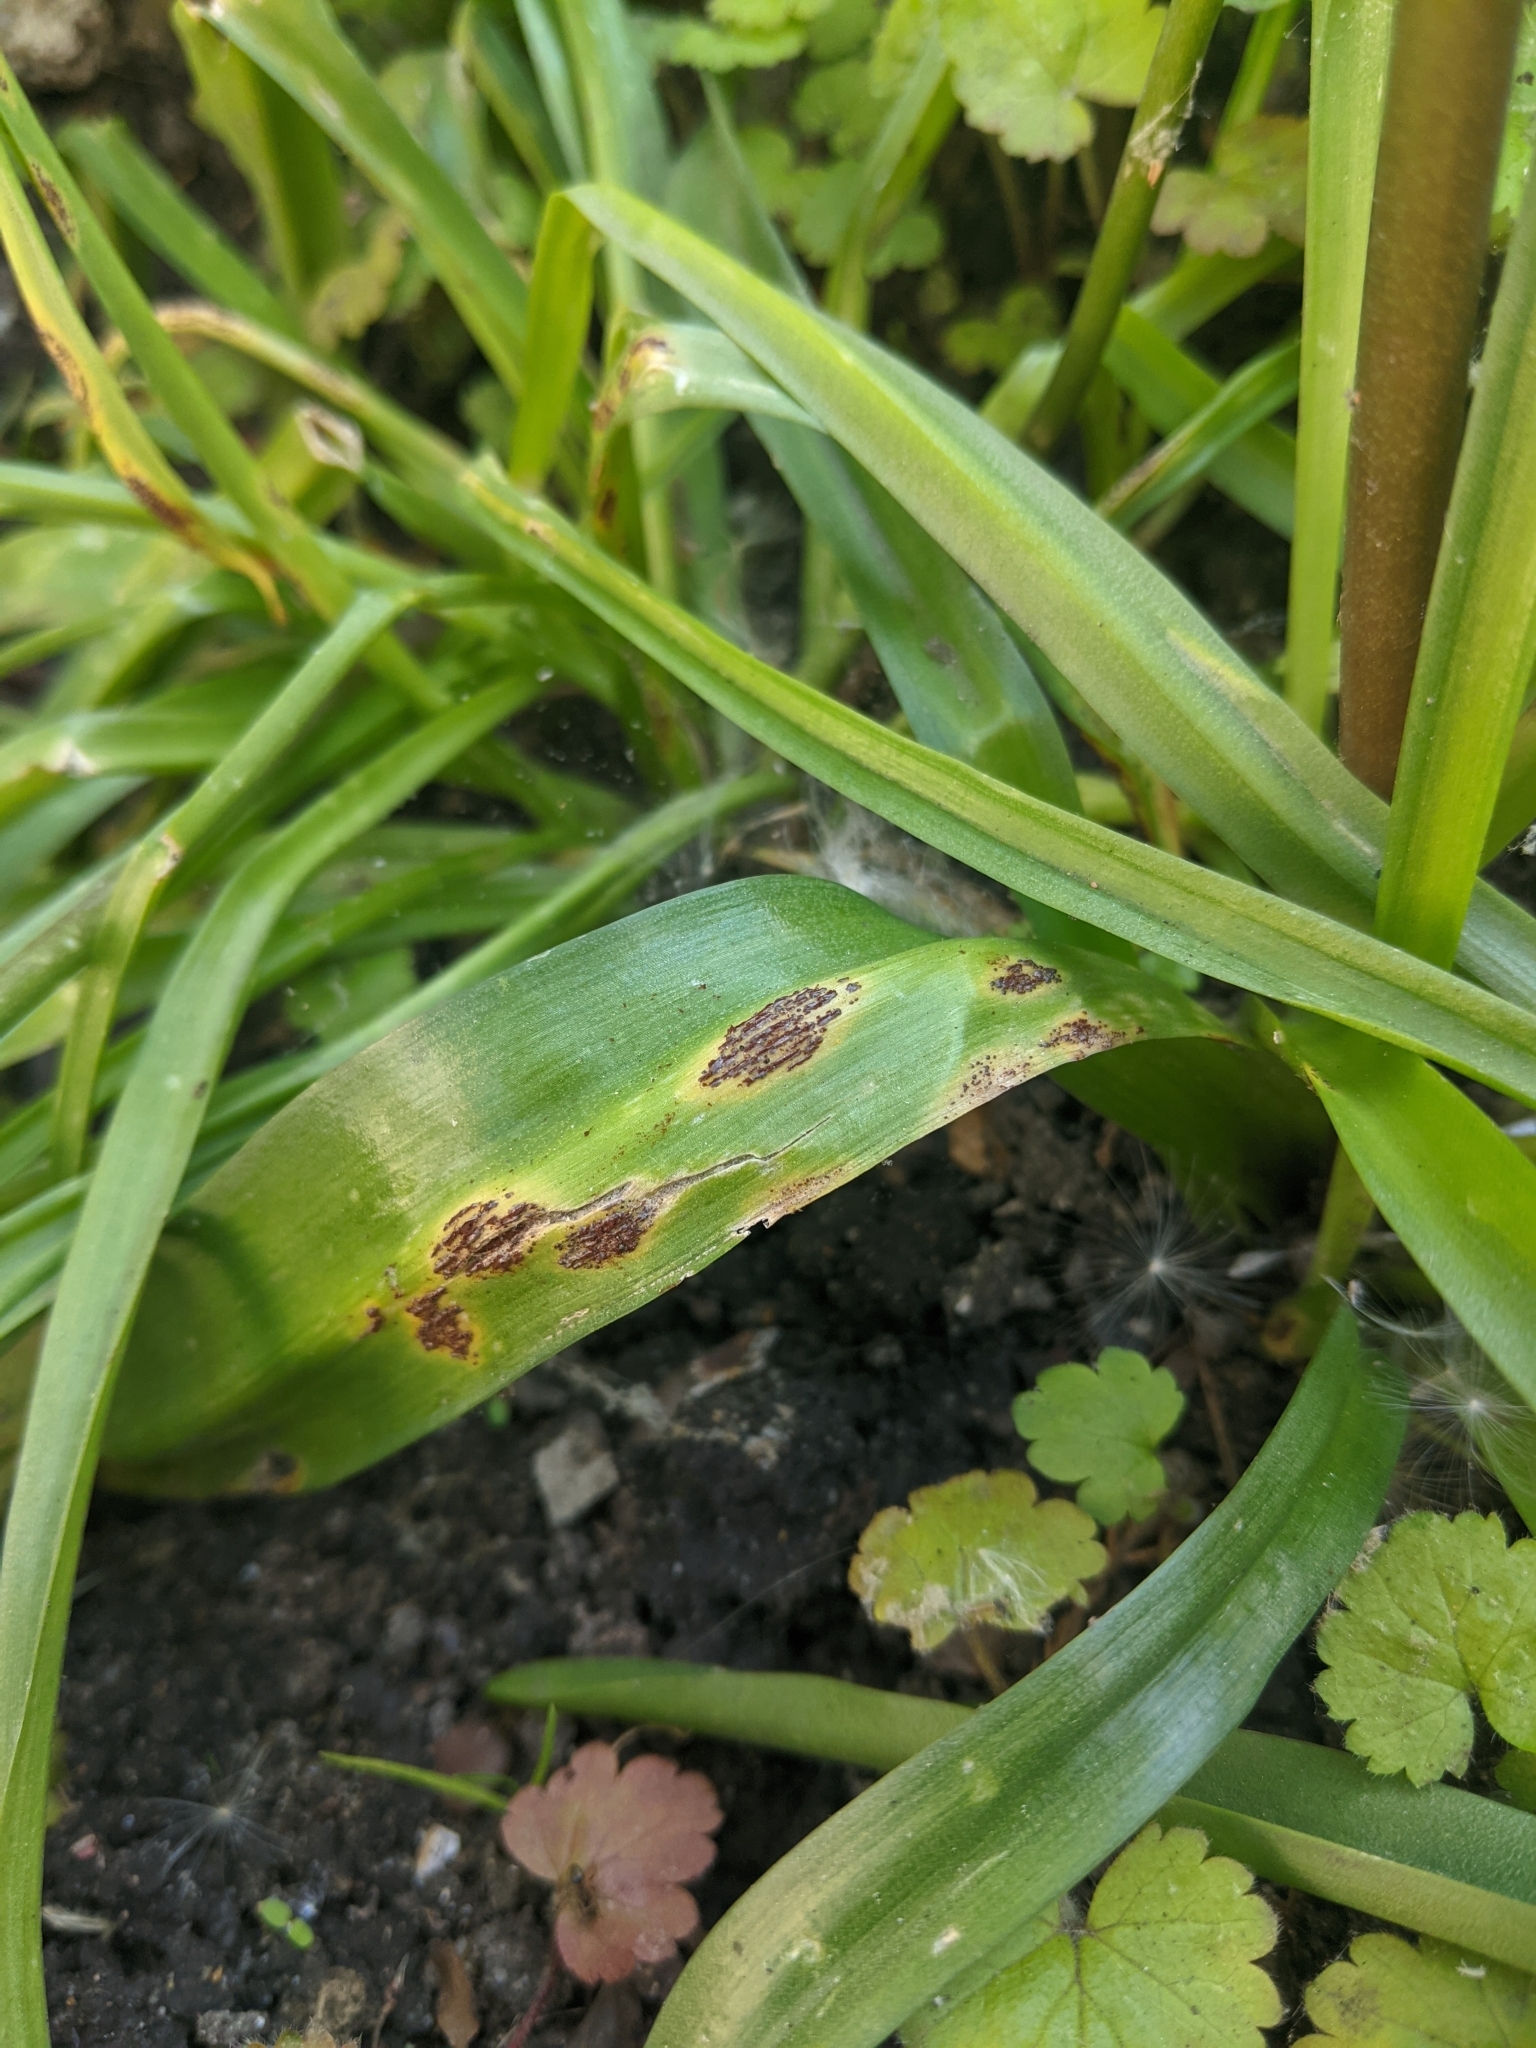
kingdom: Fungi
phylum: Basidiomycota
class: Pucciniomycetes
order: Pucciniales
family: Pucciniaceae
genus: Uromyces
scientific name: Uromyces hyacinthi
